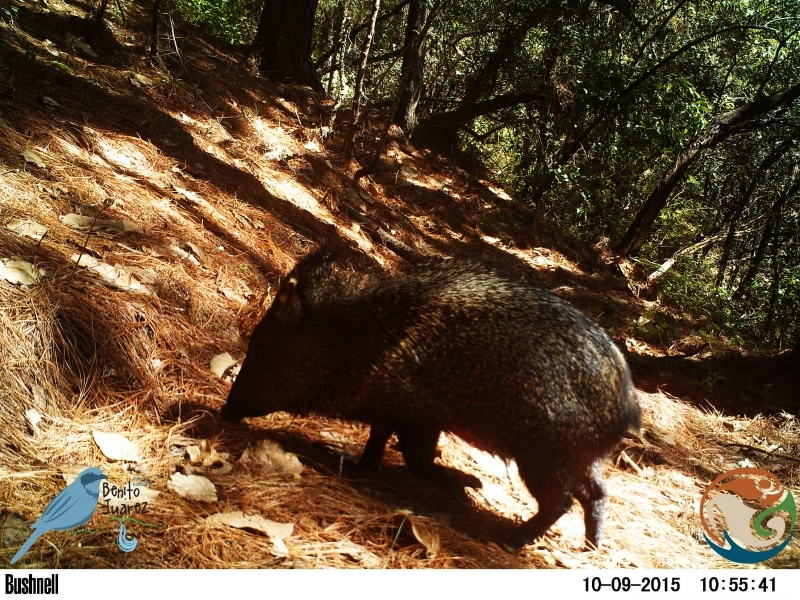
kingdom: Animalia
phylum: Chordata
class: Mammalia
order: Artiodactyla
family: Tayassuidae
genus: Pecari
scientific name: Pecari tajacu
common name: Collared peccary
